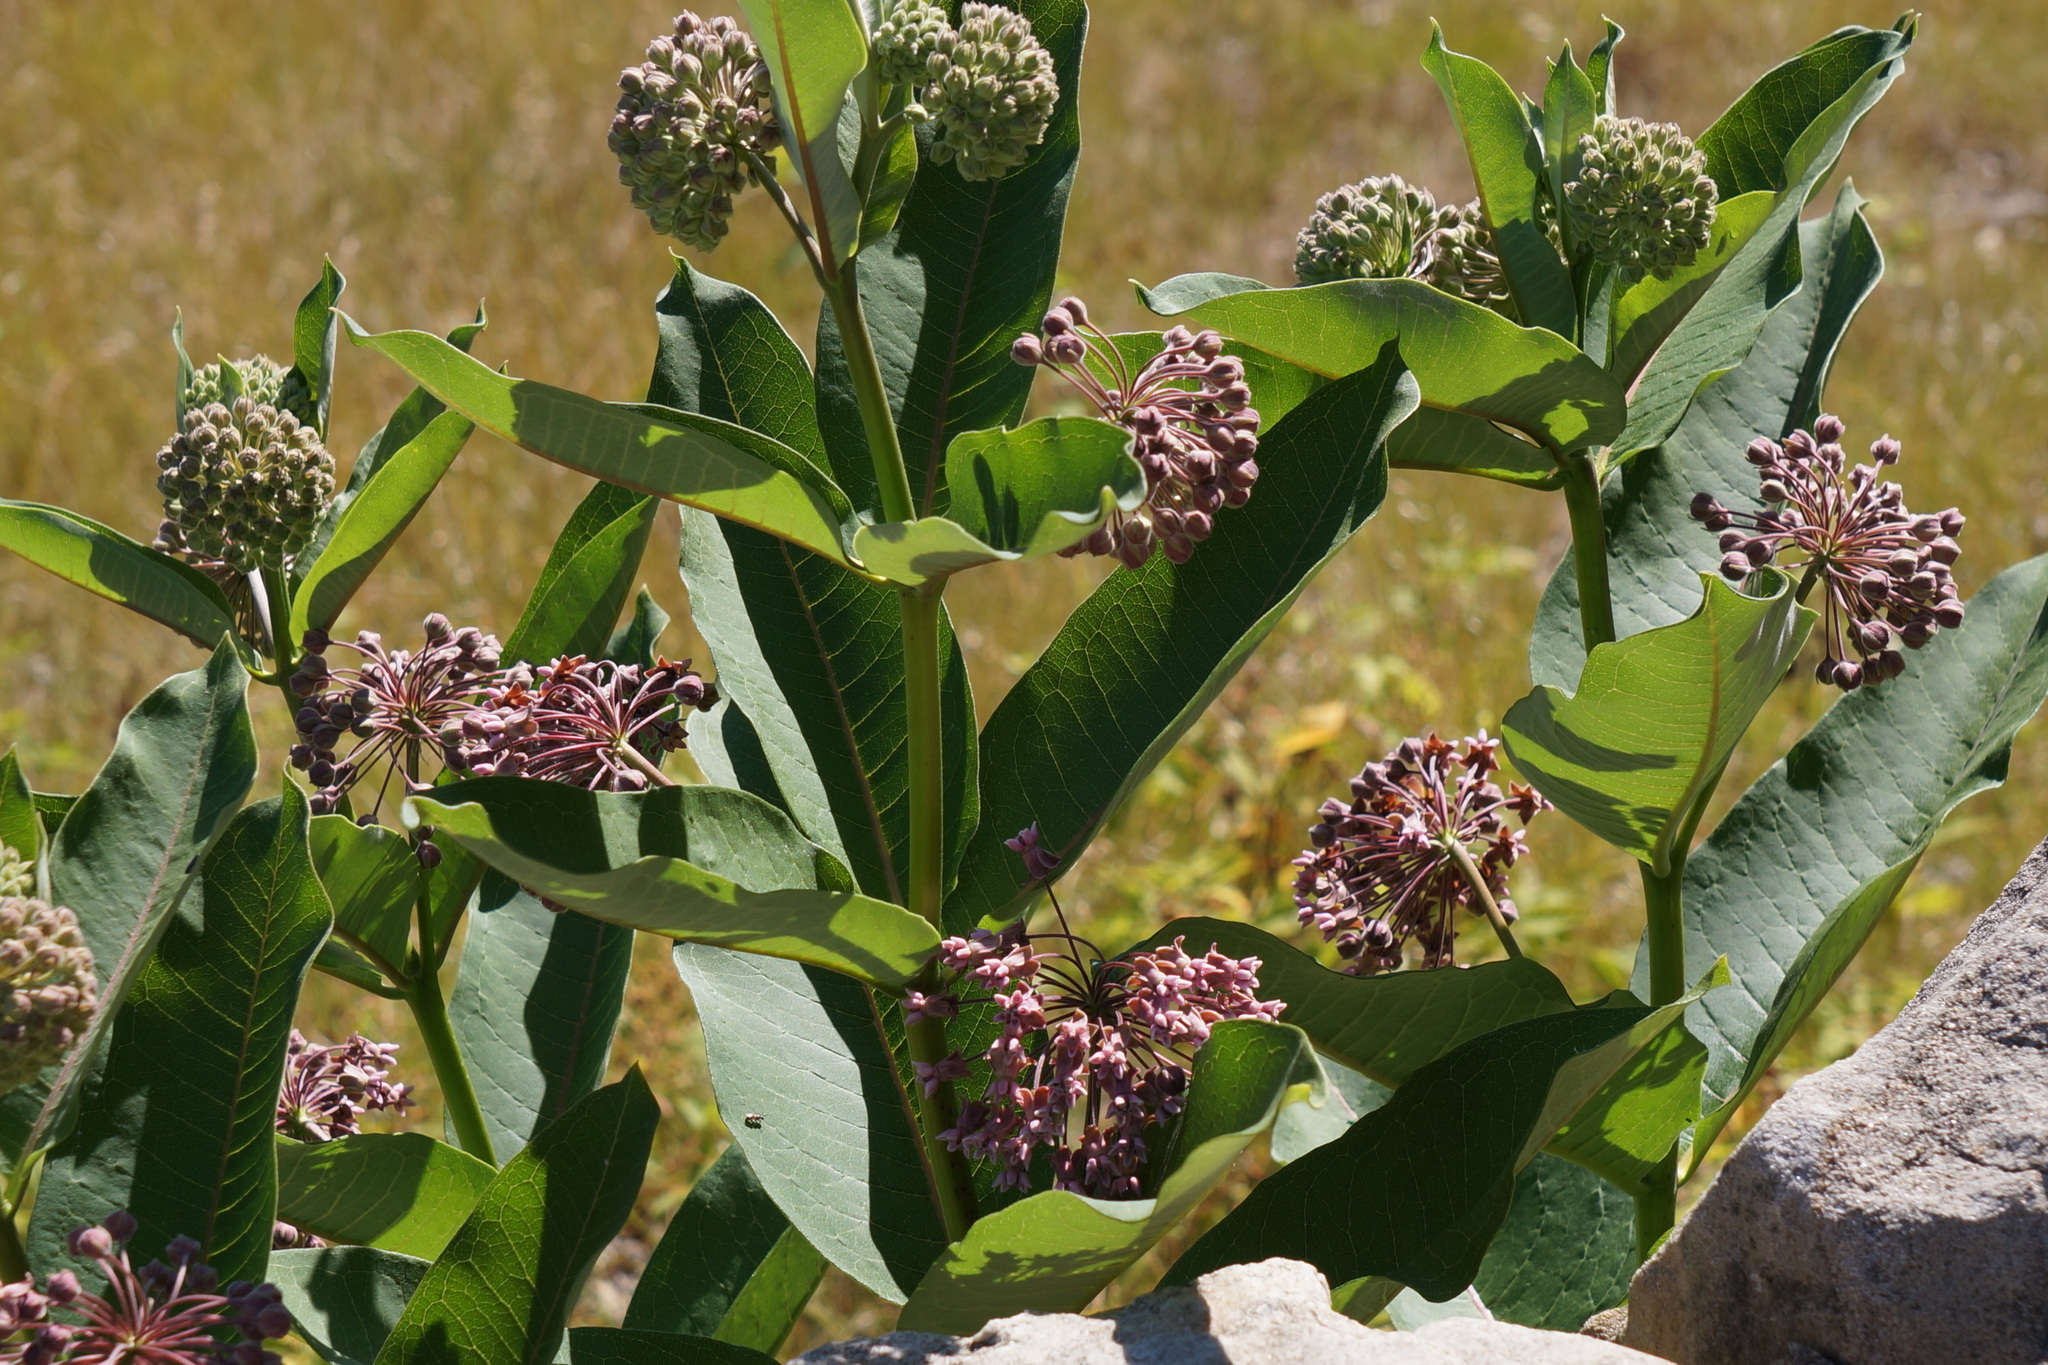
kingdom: Plantae
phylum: Tracheophyta
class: Magnoliopsida
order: Gentianales
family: Apocynaceae
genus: Asclepias
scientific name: Asclepias syriaca
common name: Common milkweed
